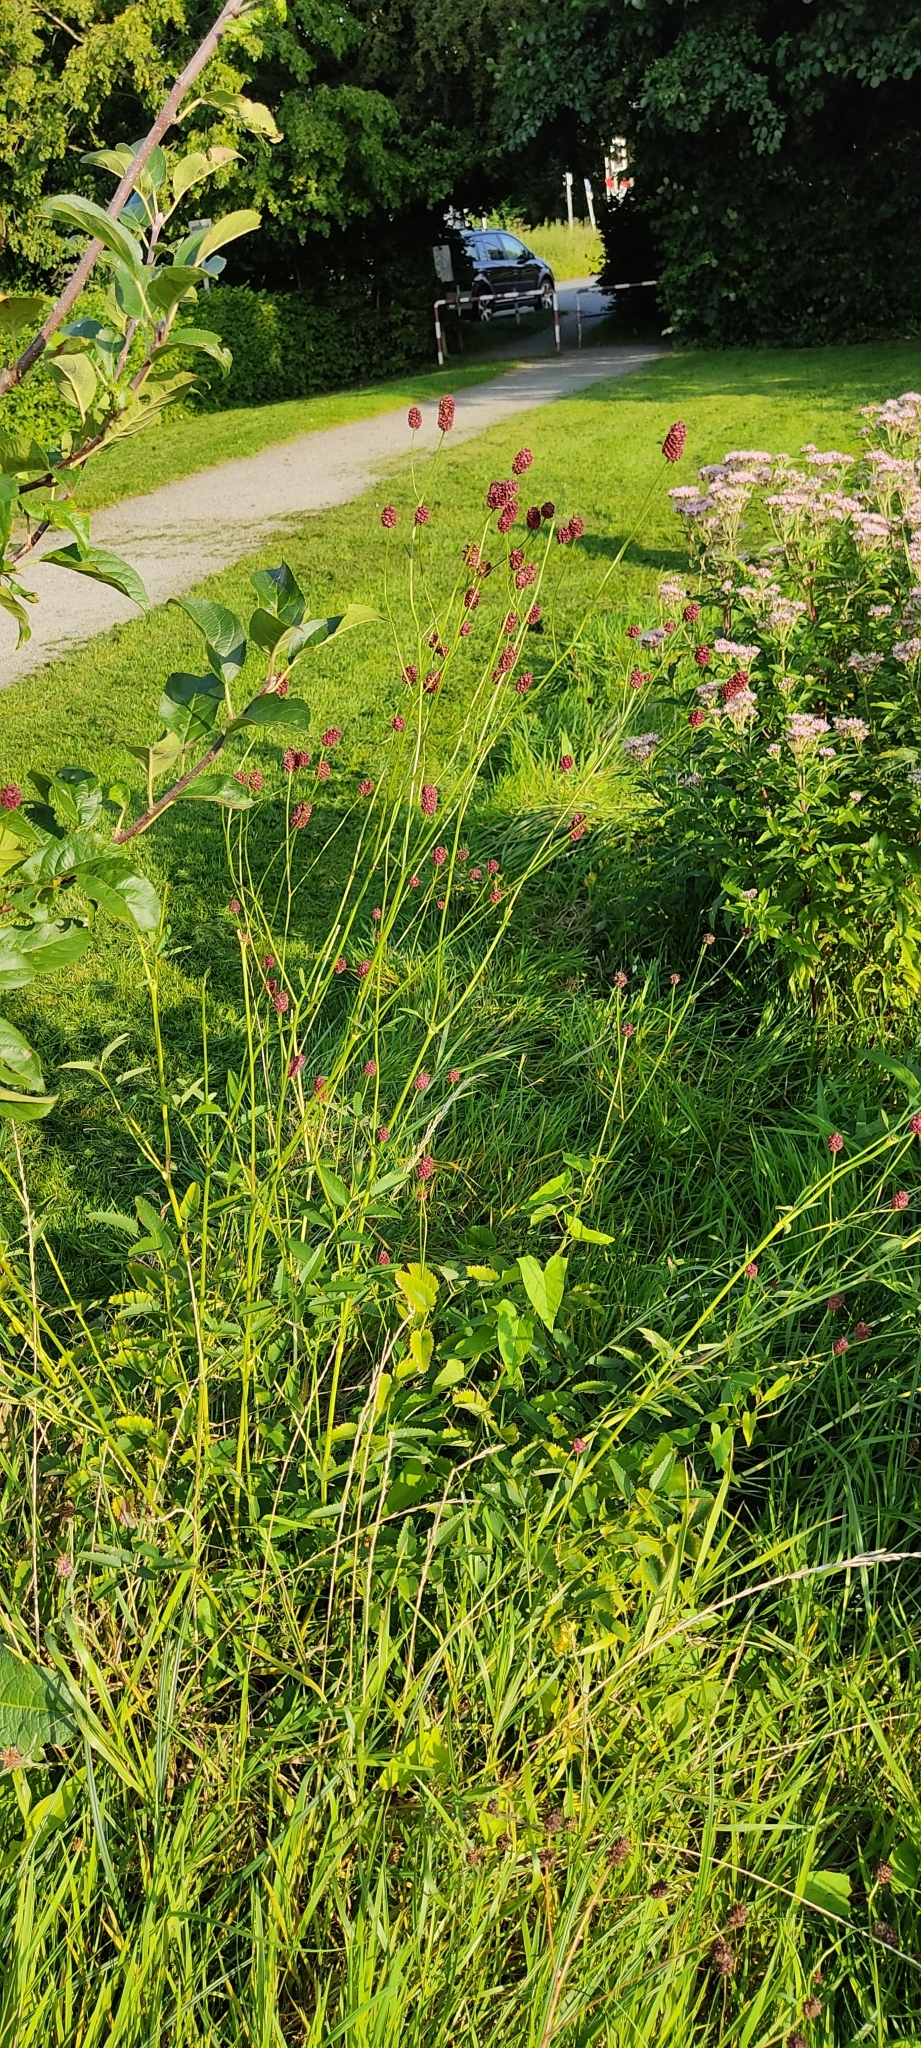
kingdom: Plantae
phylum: Tracheophyta
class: Magnoliopsida
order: Rosales
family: Rosaceae
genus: Sanguisorba
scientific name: Sanguisorba officinalis
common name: Great burnet
